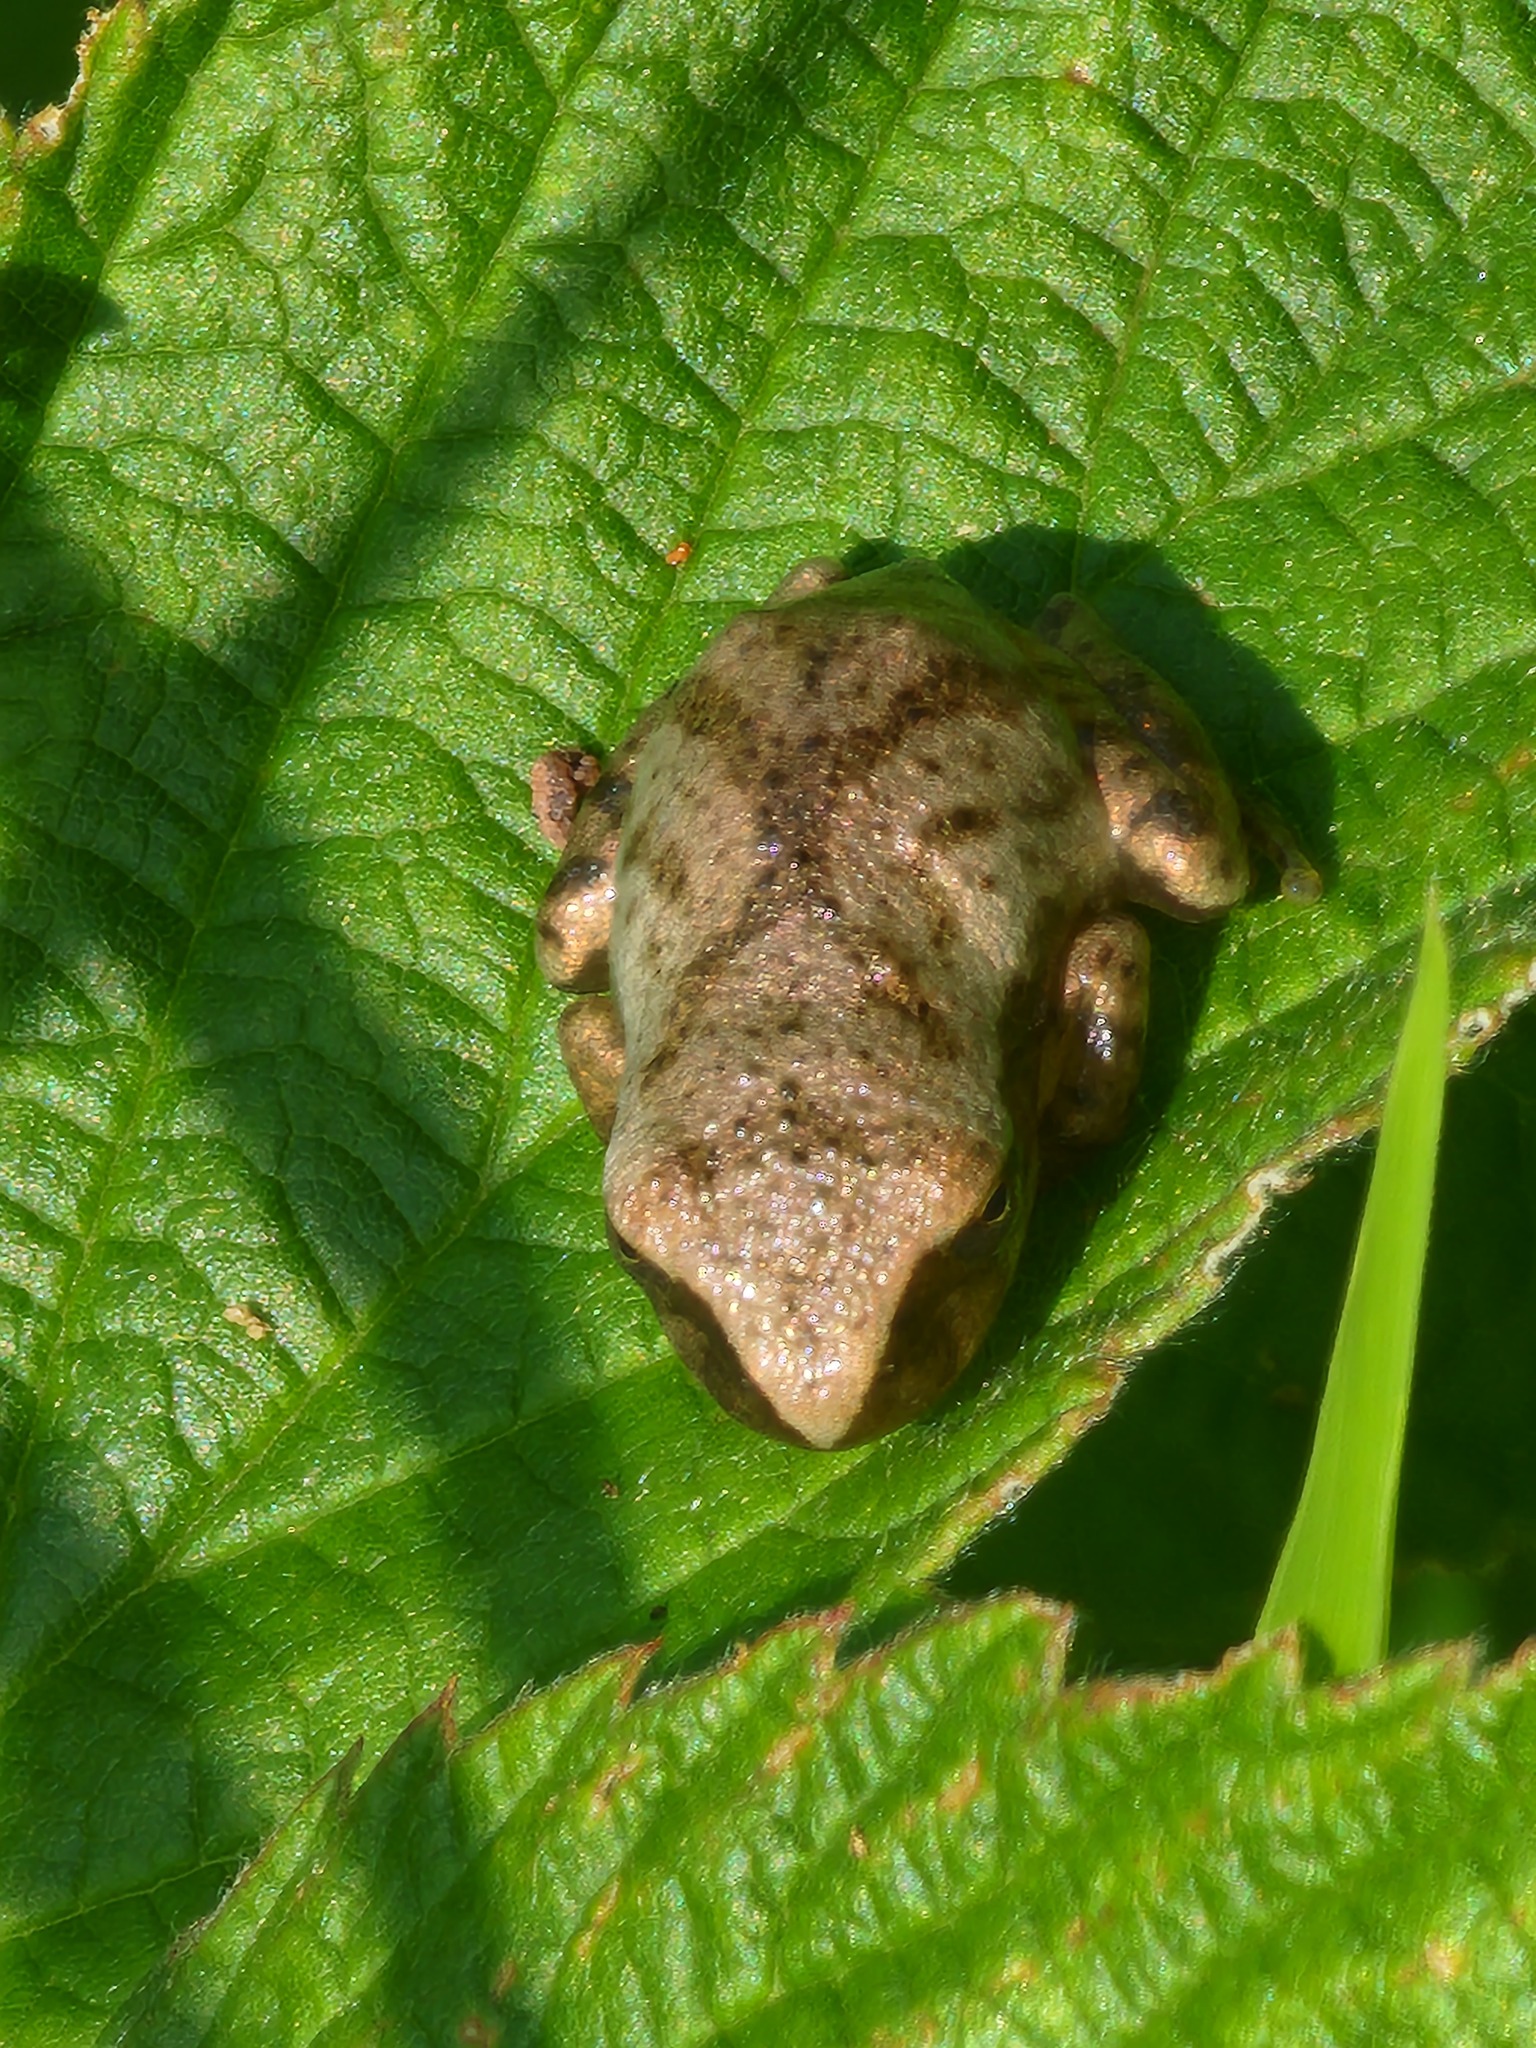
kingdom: Animalia
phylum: Chordata
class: Amphibia
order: Anura
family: Hylidae
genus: Pseudacris
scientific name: Pseudacris crucifer
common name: Spring peeper
